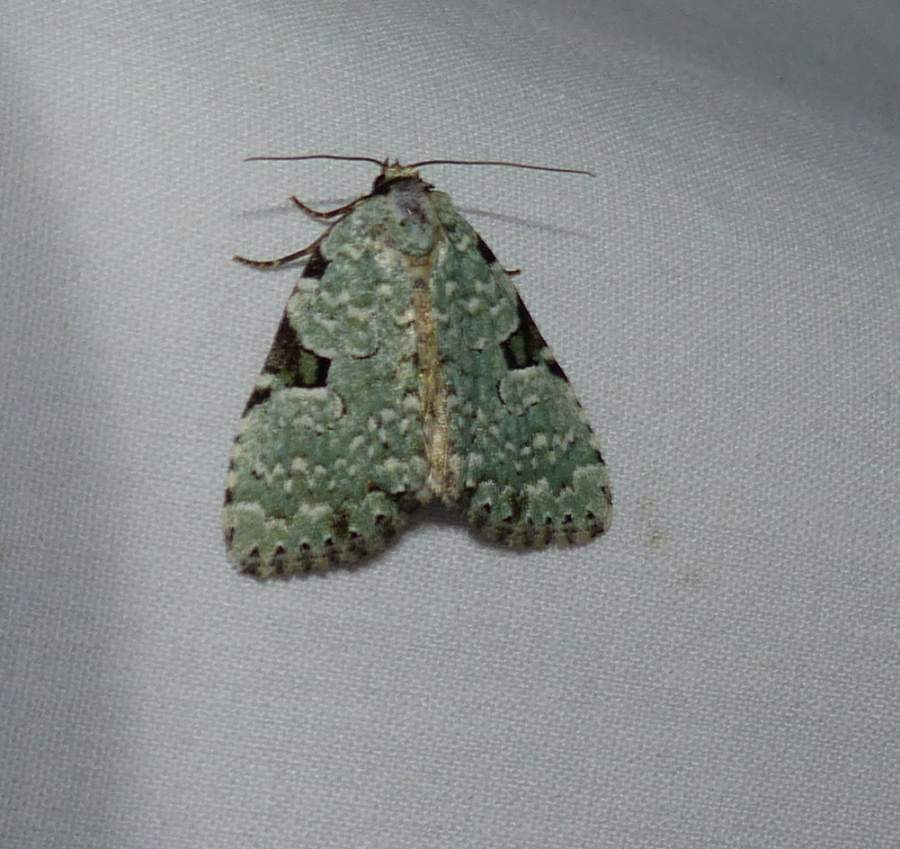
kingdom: Animalia
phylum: Arthropoda
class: Insecta
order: Lepidoptera
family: Noctuidae
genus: Leuconycta
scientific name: Leuconycta diphteroides
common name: Green leuconycta moth
